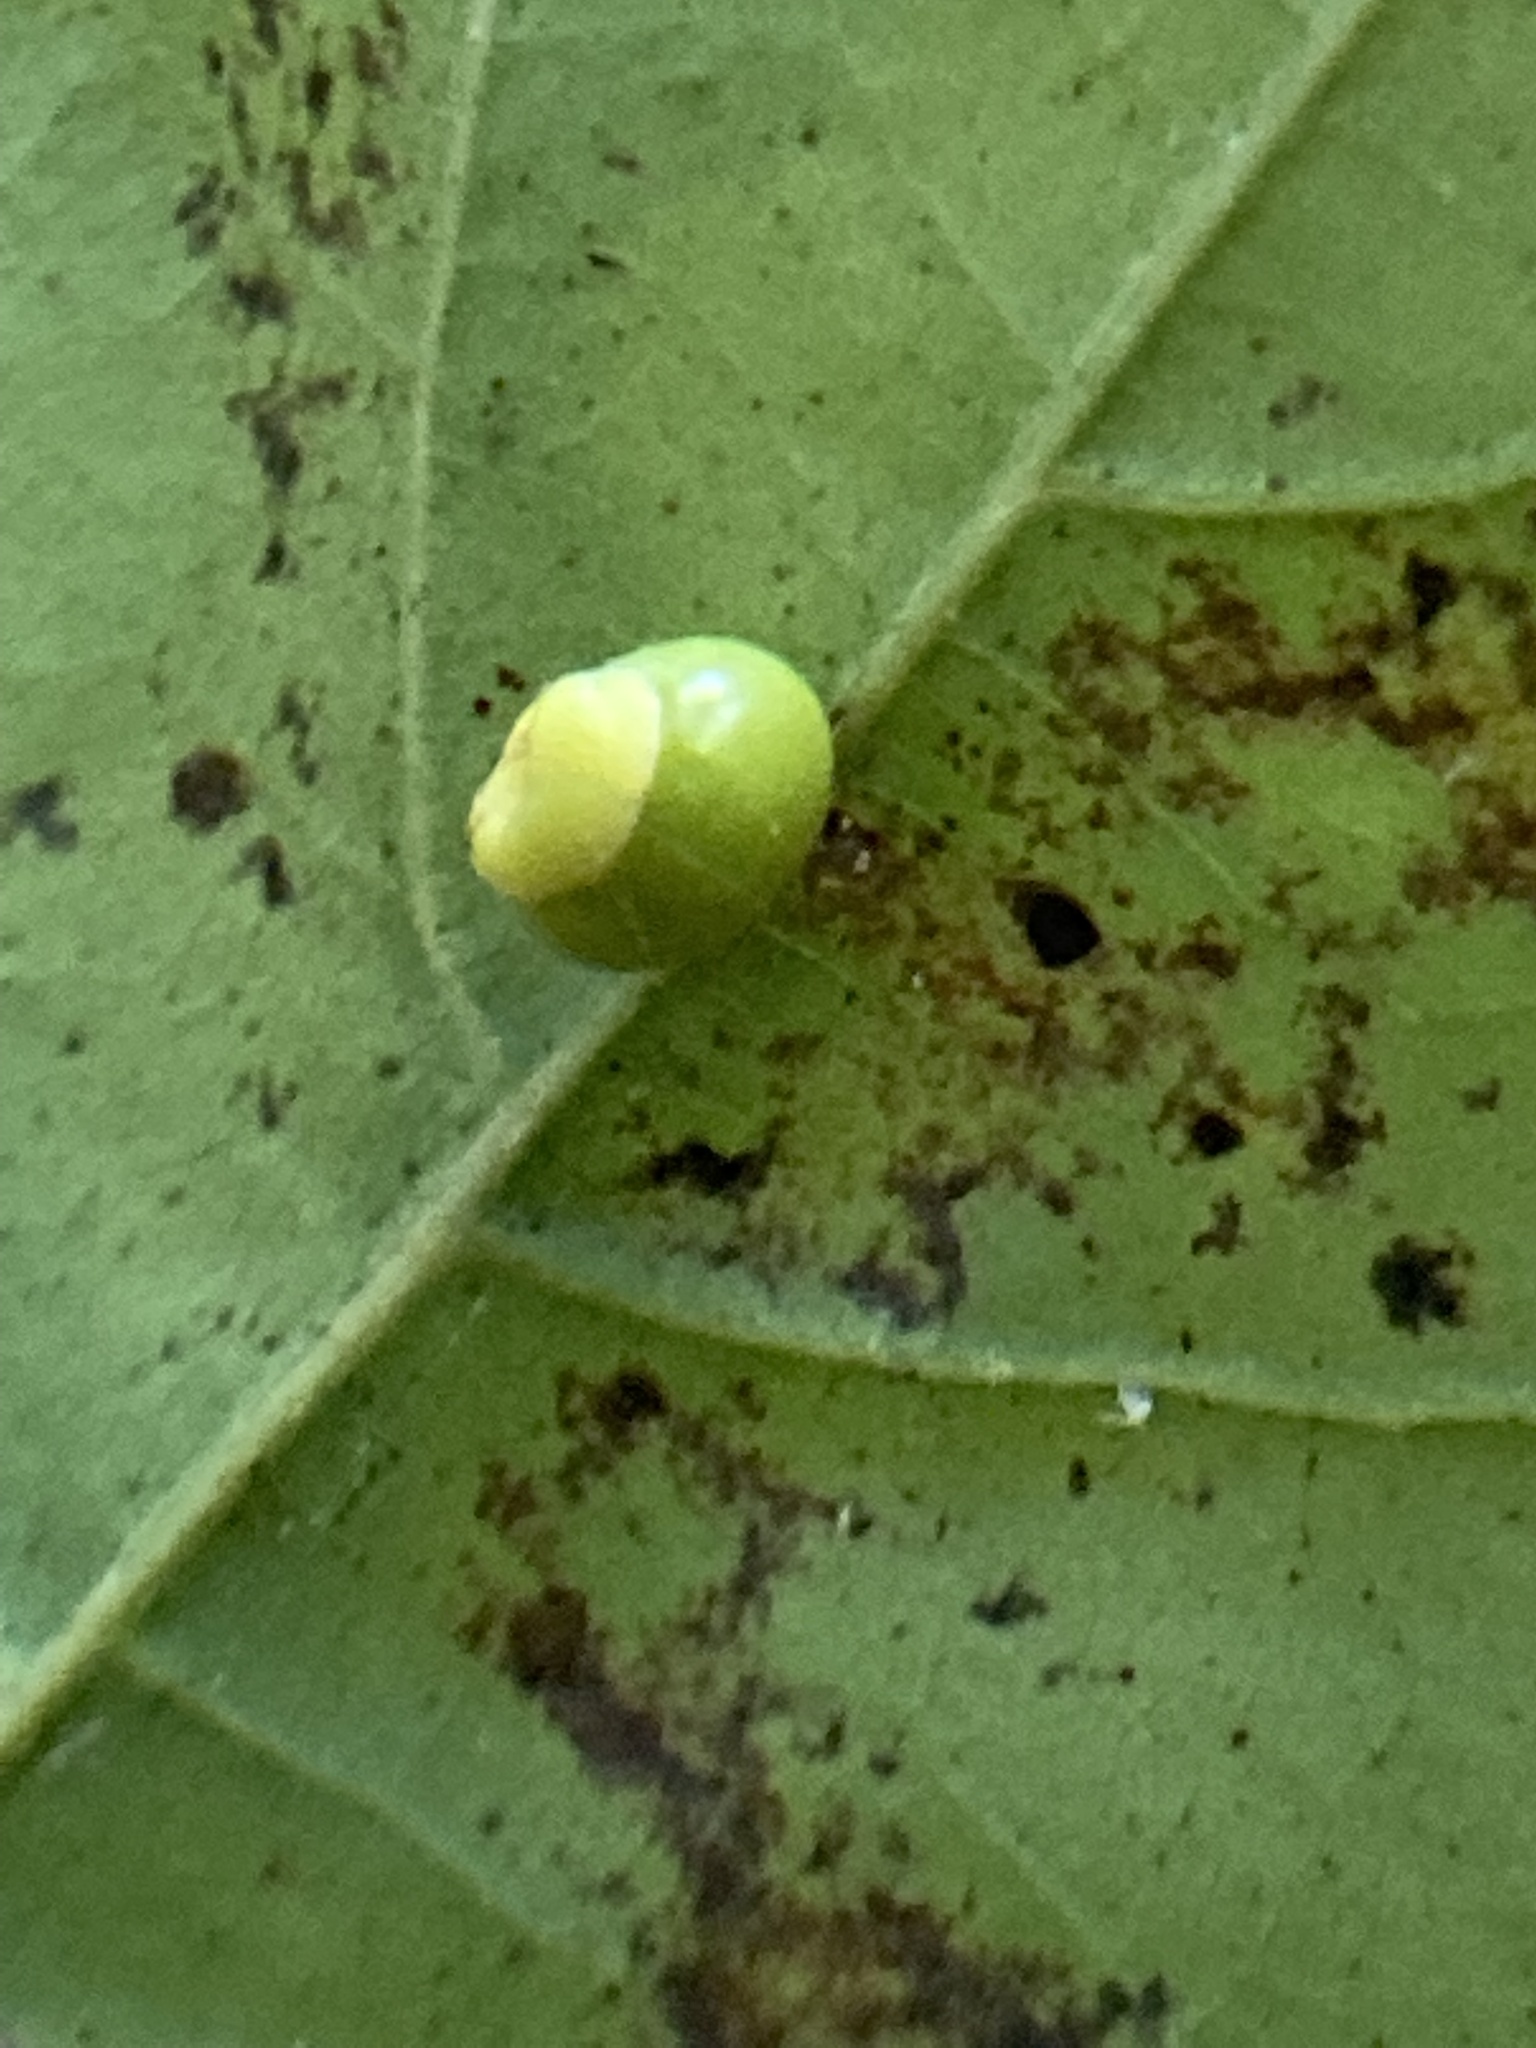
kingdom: Animalia
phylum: Arthropoda
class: Insecta
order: Hymenoptera
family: Cynipidae
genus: Kokkocynips
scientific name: Kokkocynips rileyi
